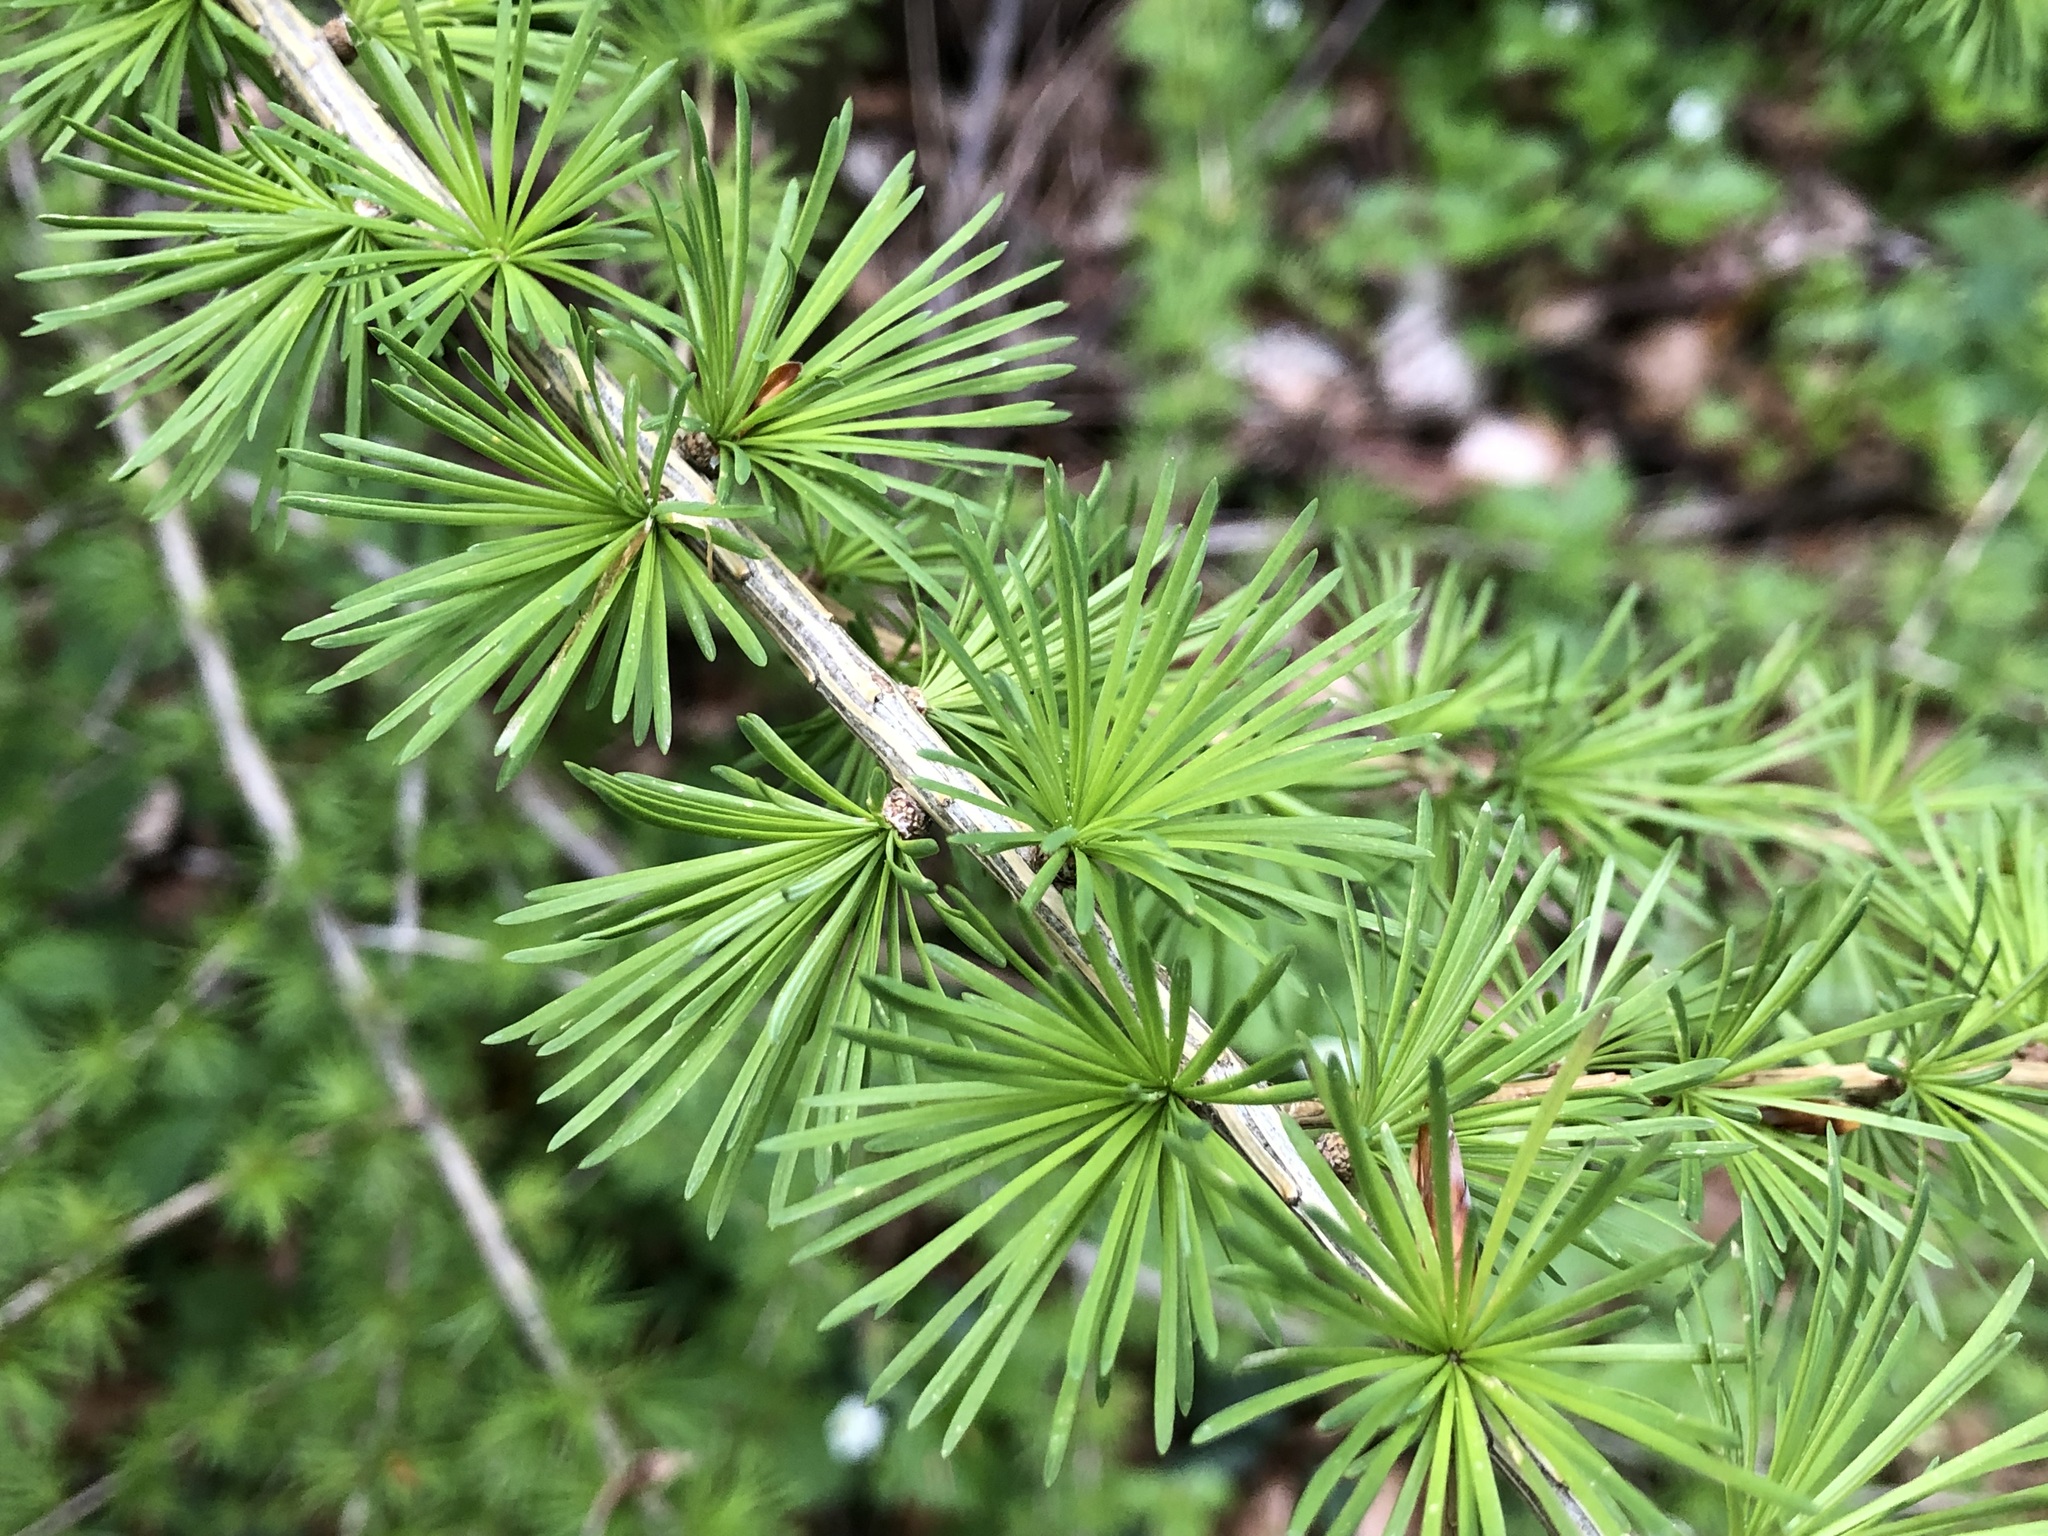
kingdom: Plantae
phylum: Tracheophyta
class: Pinopsida
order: Pinales
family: Pinaceae
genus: Larix
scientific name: Larix decidua
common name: European larch
